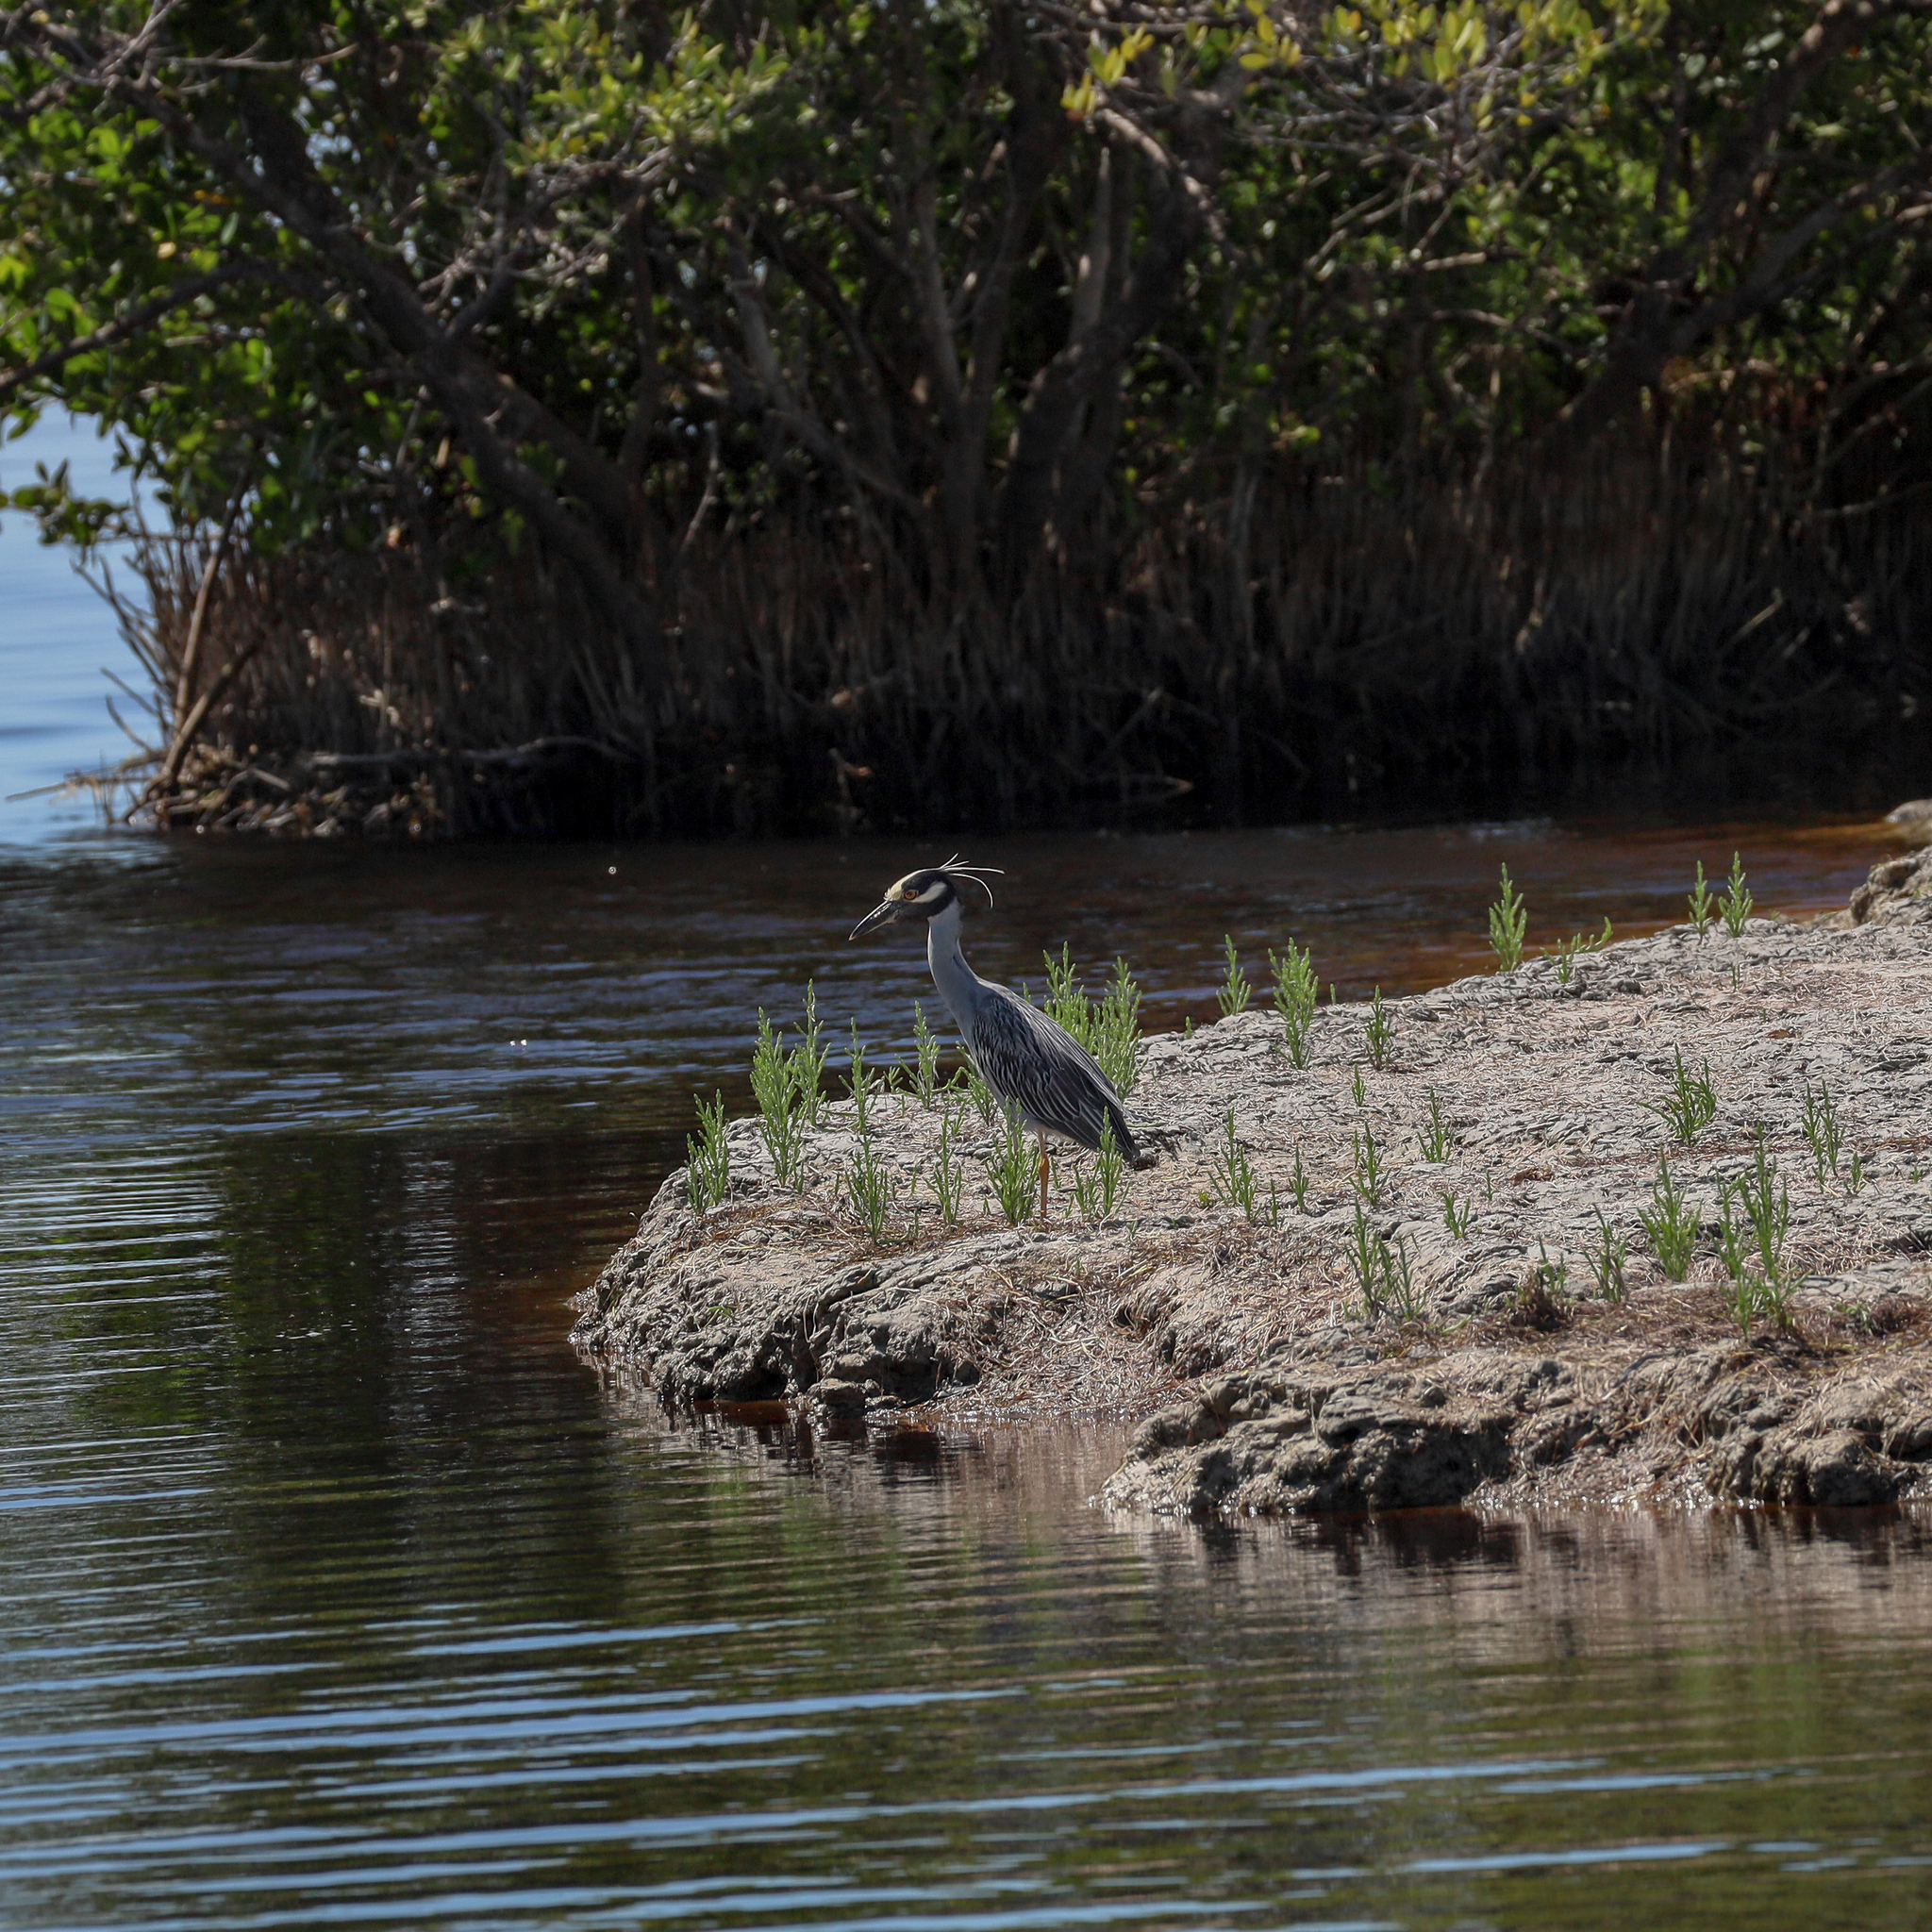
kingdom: Animalia
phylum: Chordata
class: Aves
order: Pelecaniformes
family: Ardeidae
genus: Nyctanassa
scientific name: Nyctanassa violacea
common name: Yellow-crowned night heron
